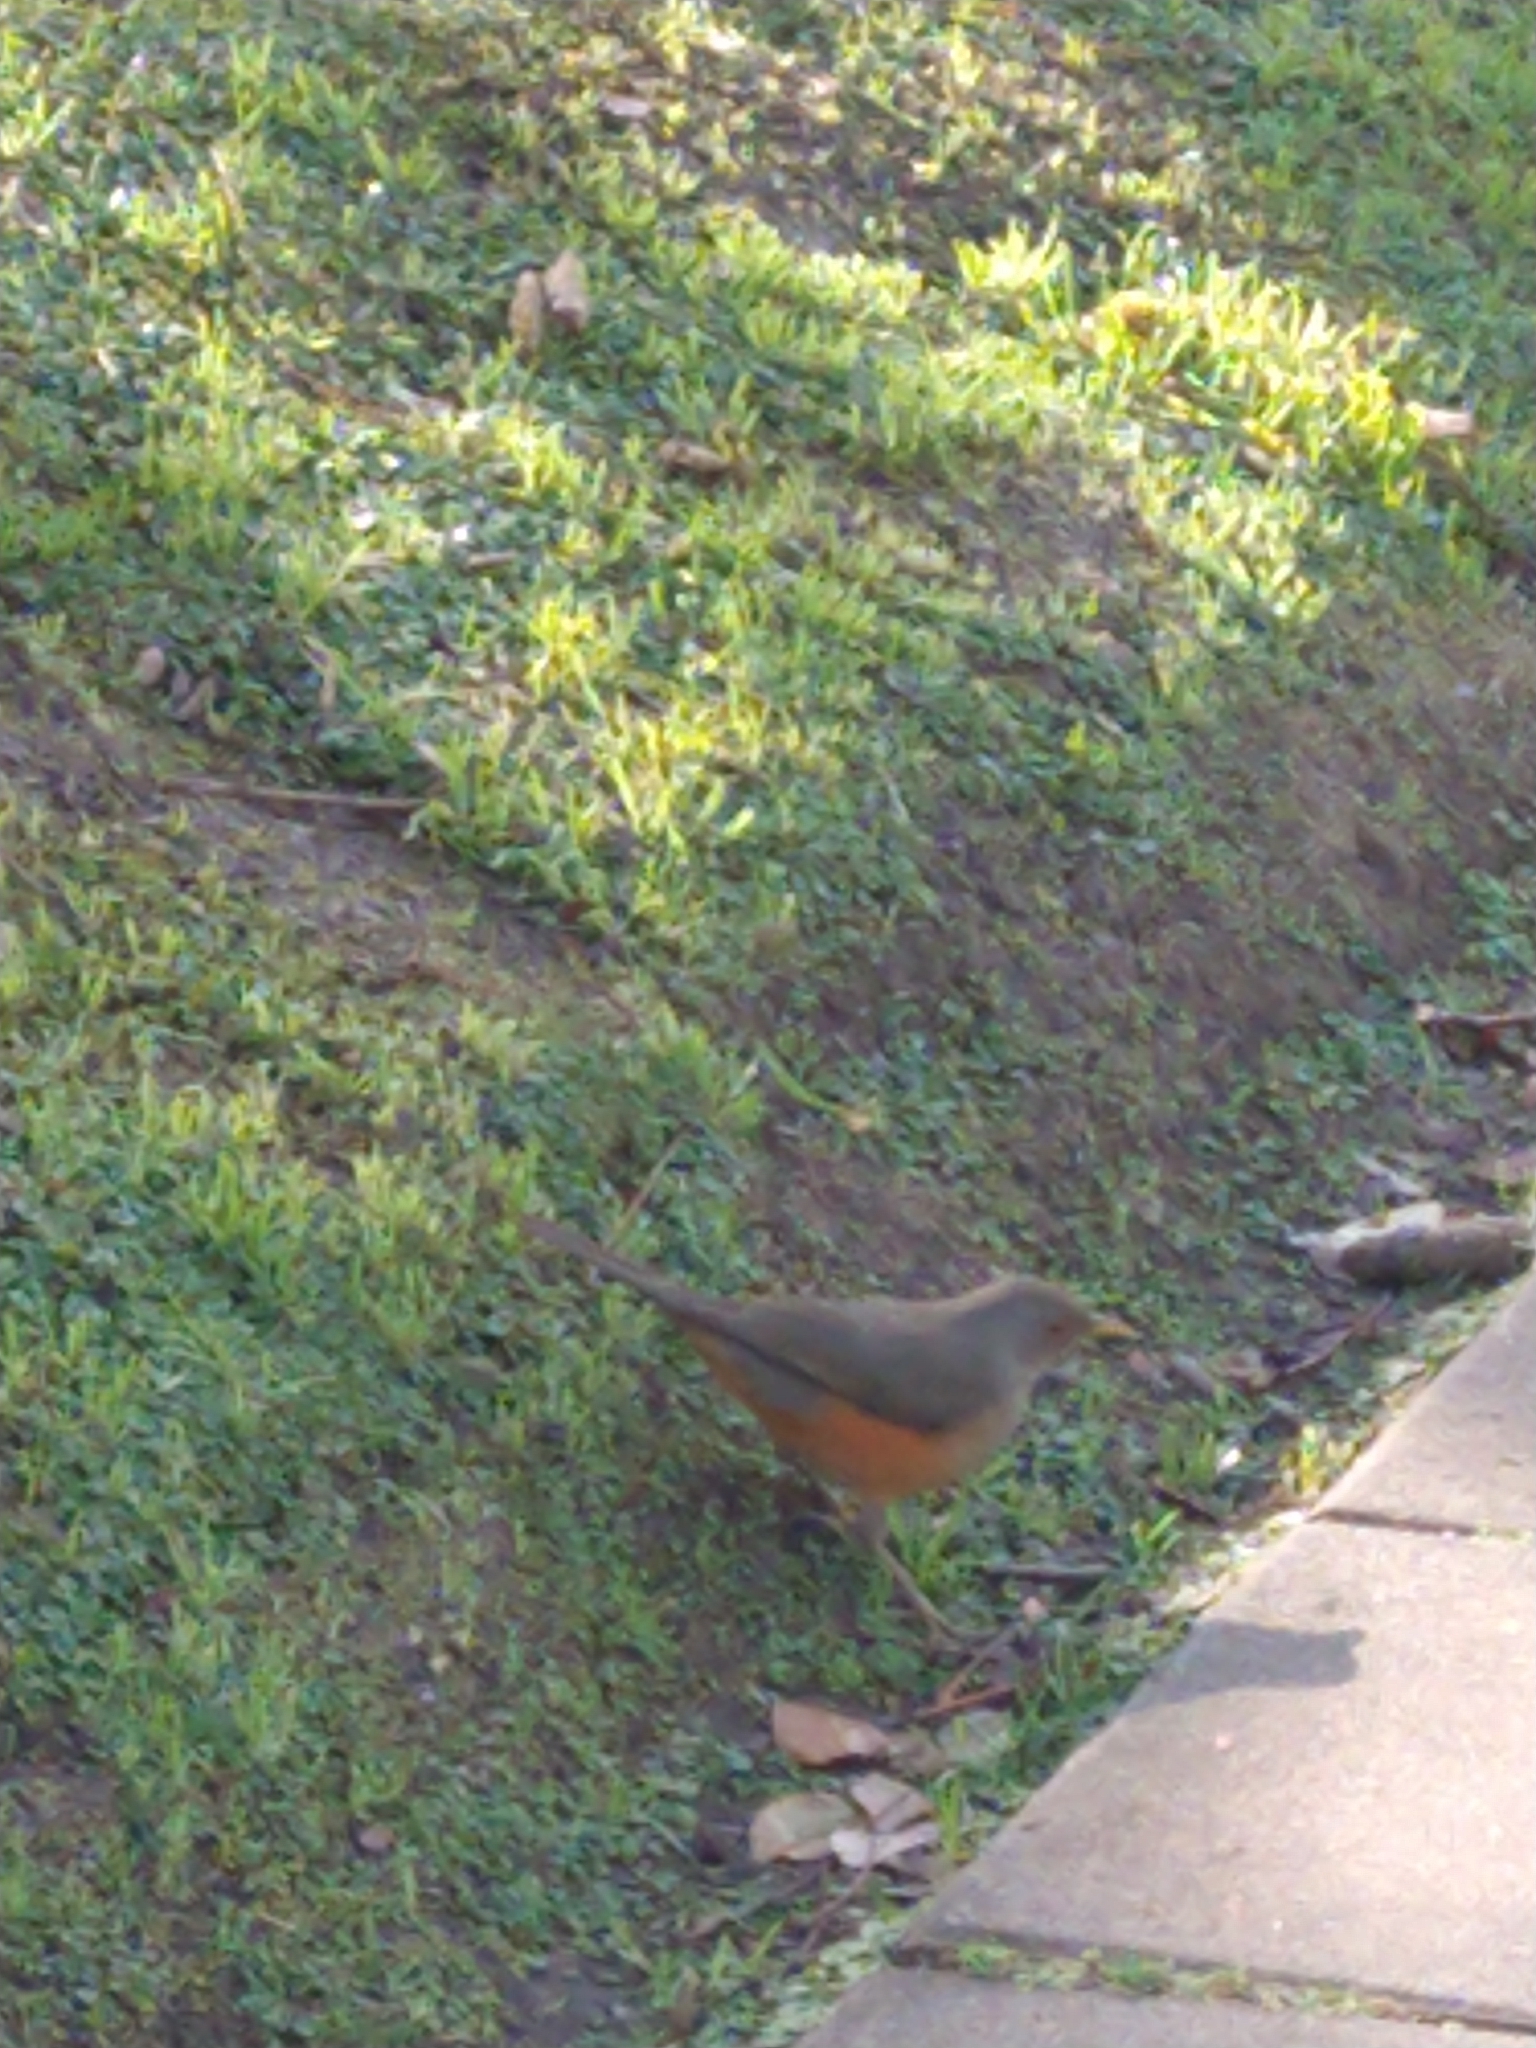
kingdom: Animalia
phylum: Chordata
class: Aves
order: Passeriformes
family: Turdidae
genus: Turdus
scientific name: Turdus rufiventris
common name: Rufous-bellied thrush
